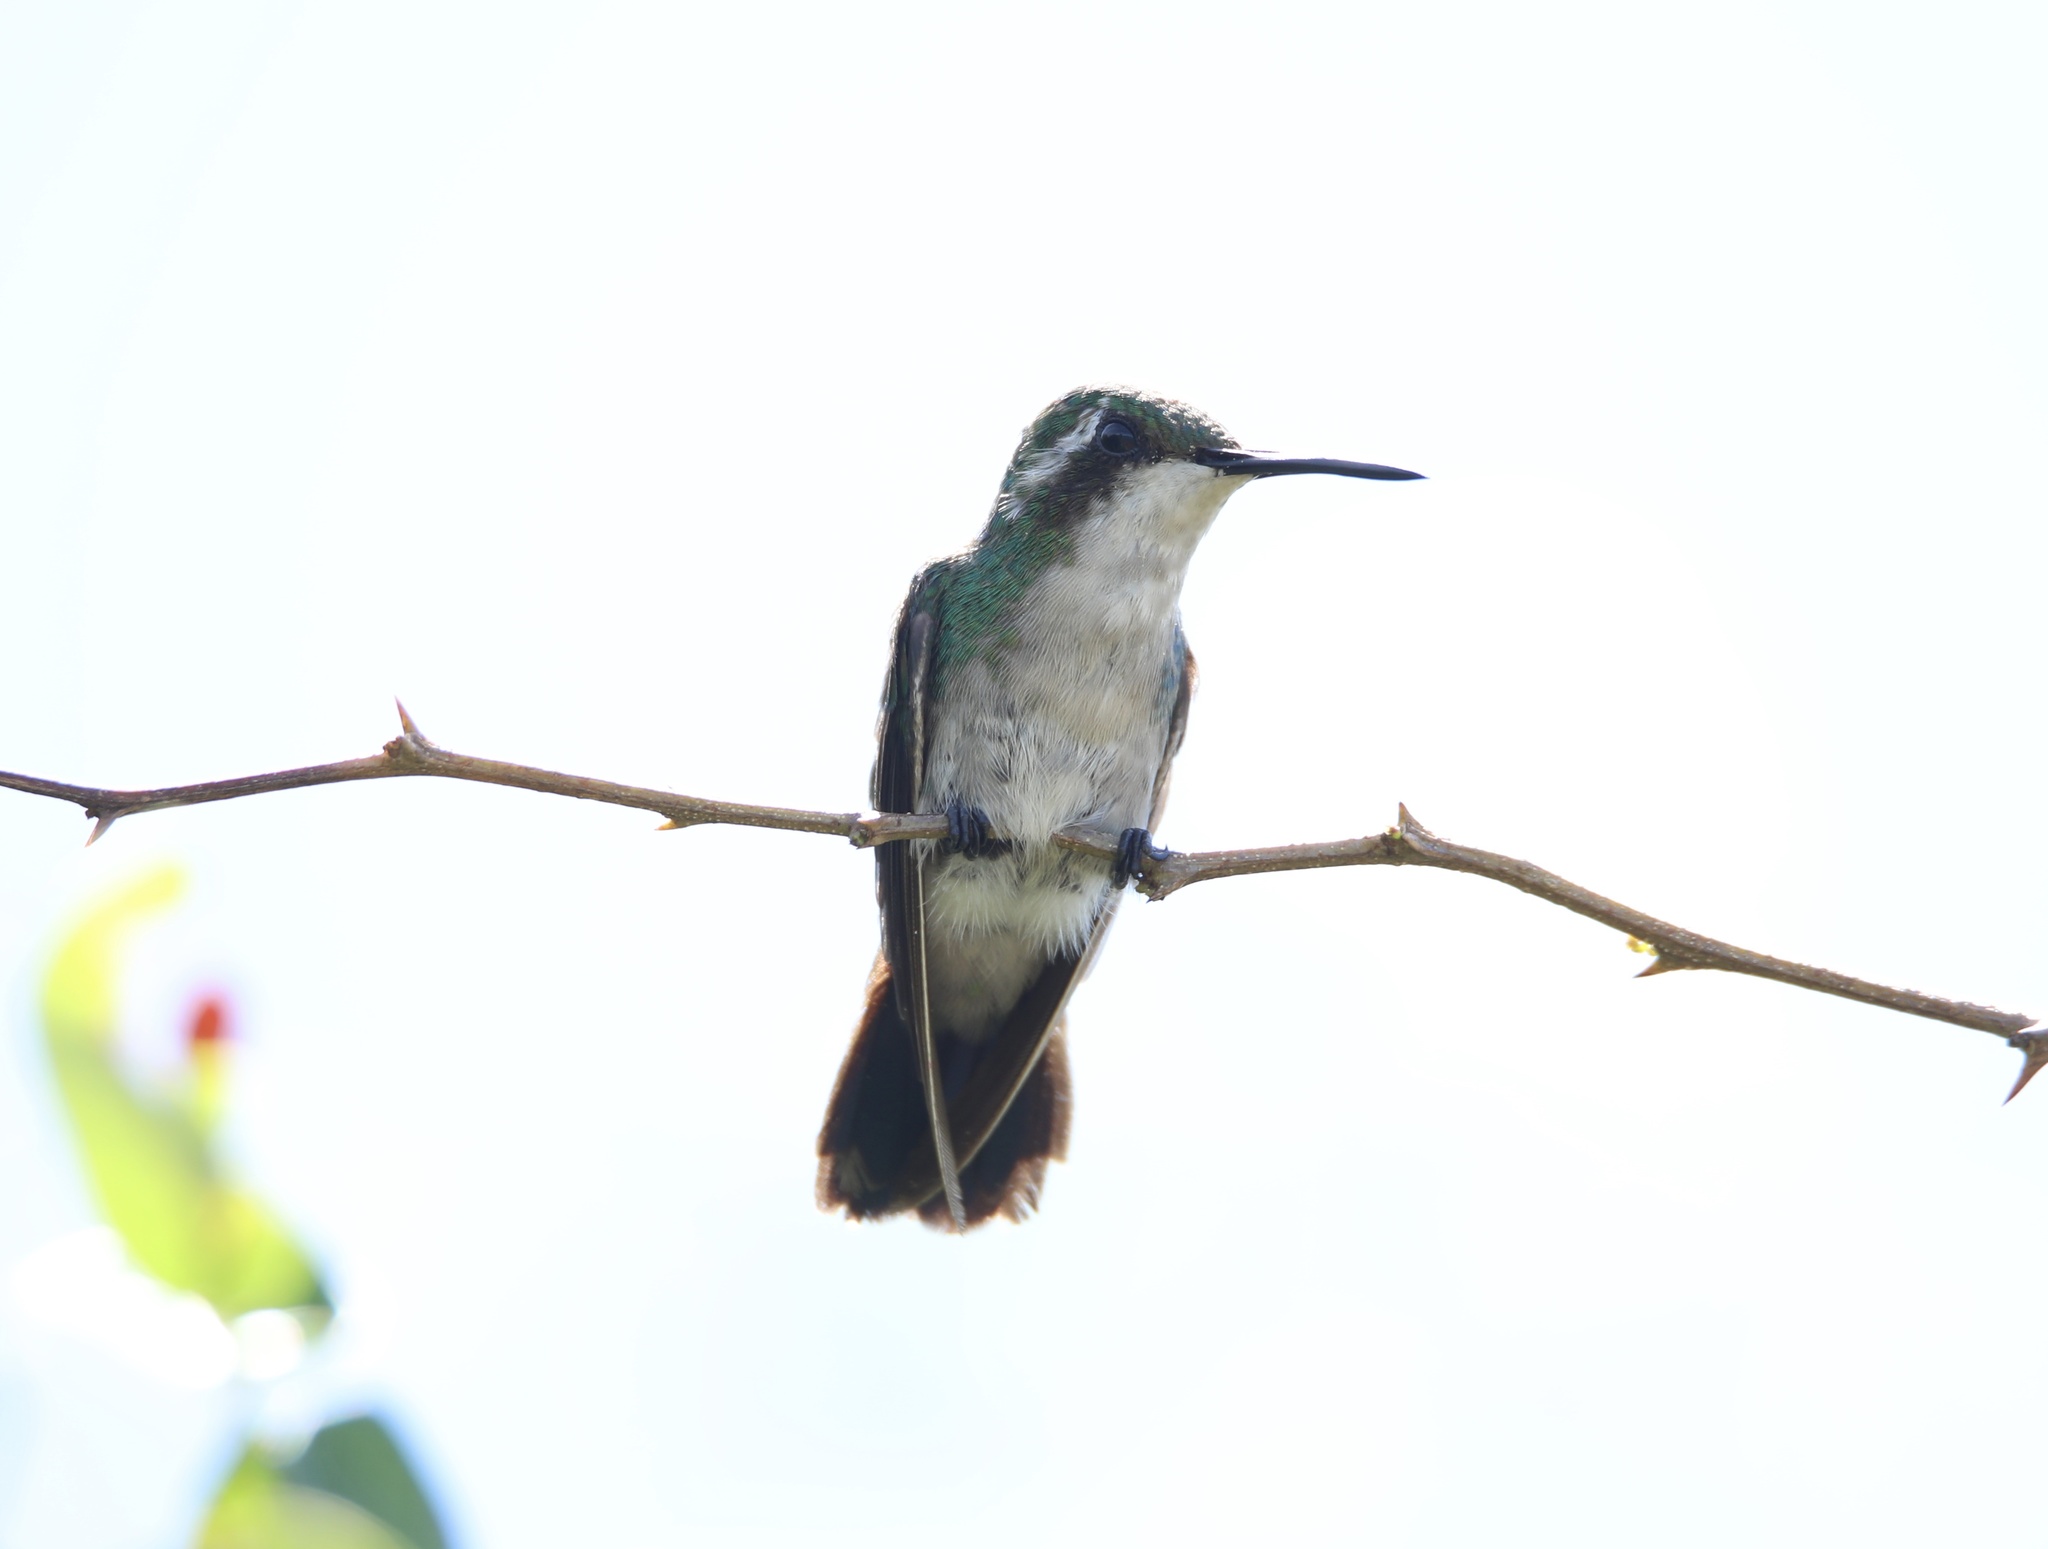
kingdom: Animalia
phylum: Chordata
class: Aves
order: Apodiformes
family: Trochilidae
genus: Chlorostilbon
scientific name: Chlorostilbon assimilis
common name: Garden emerald
